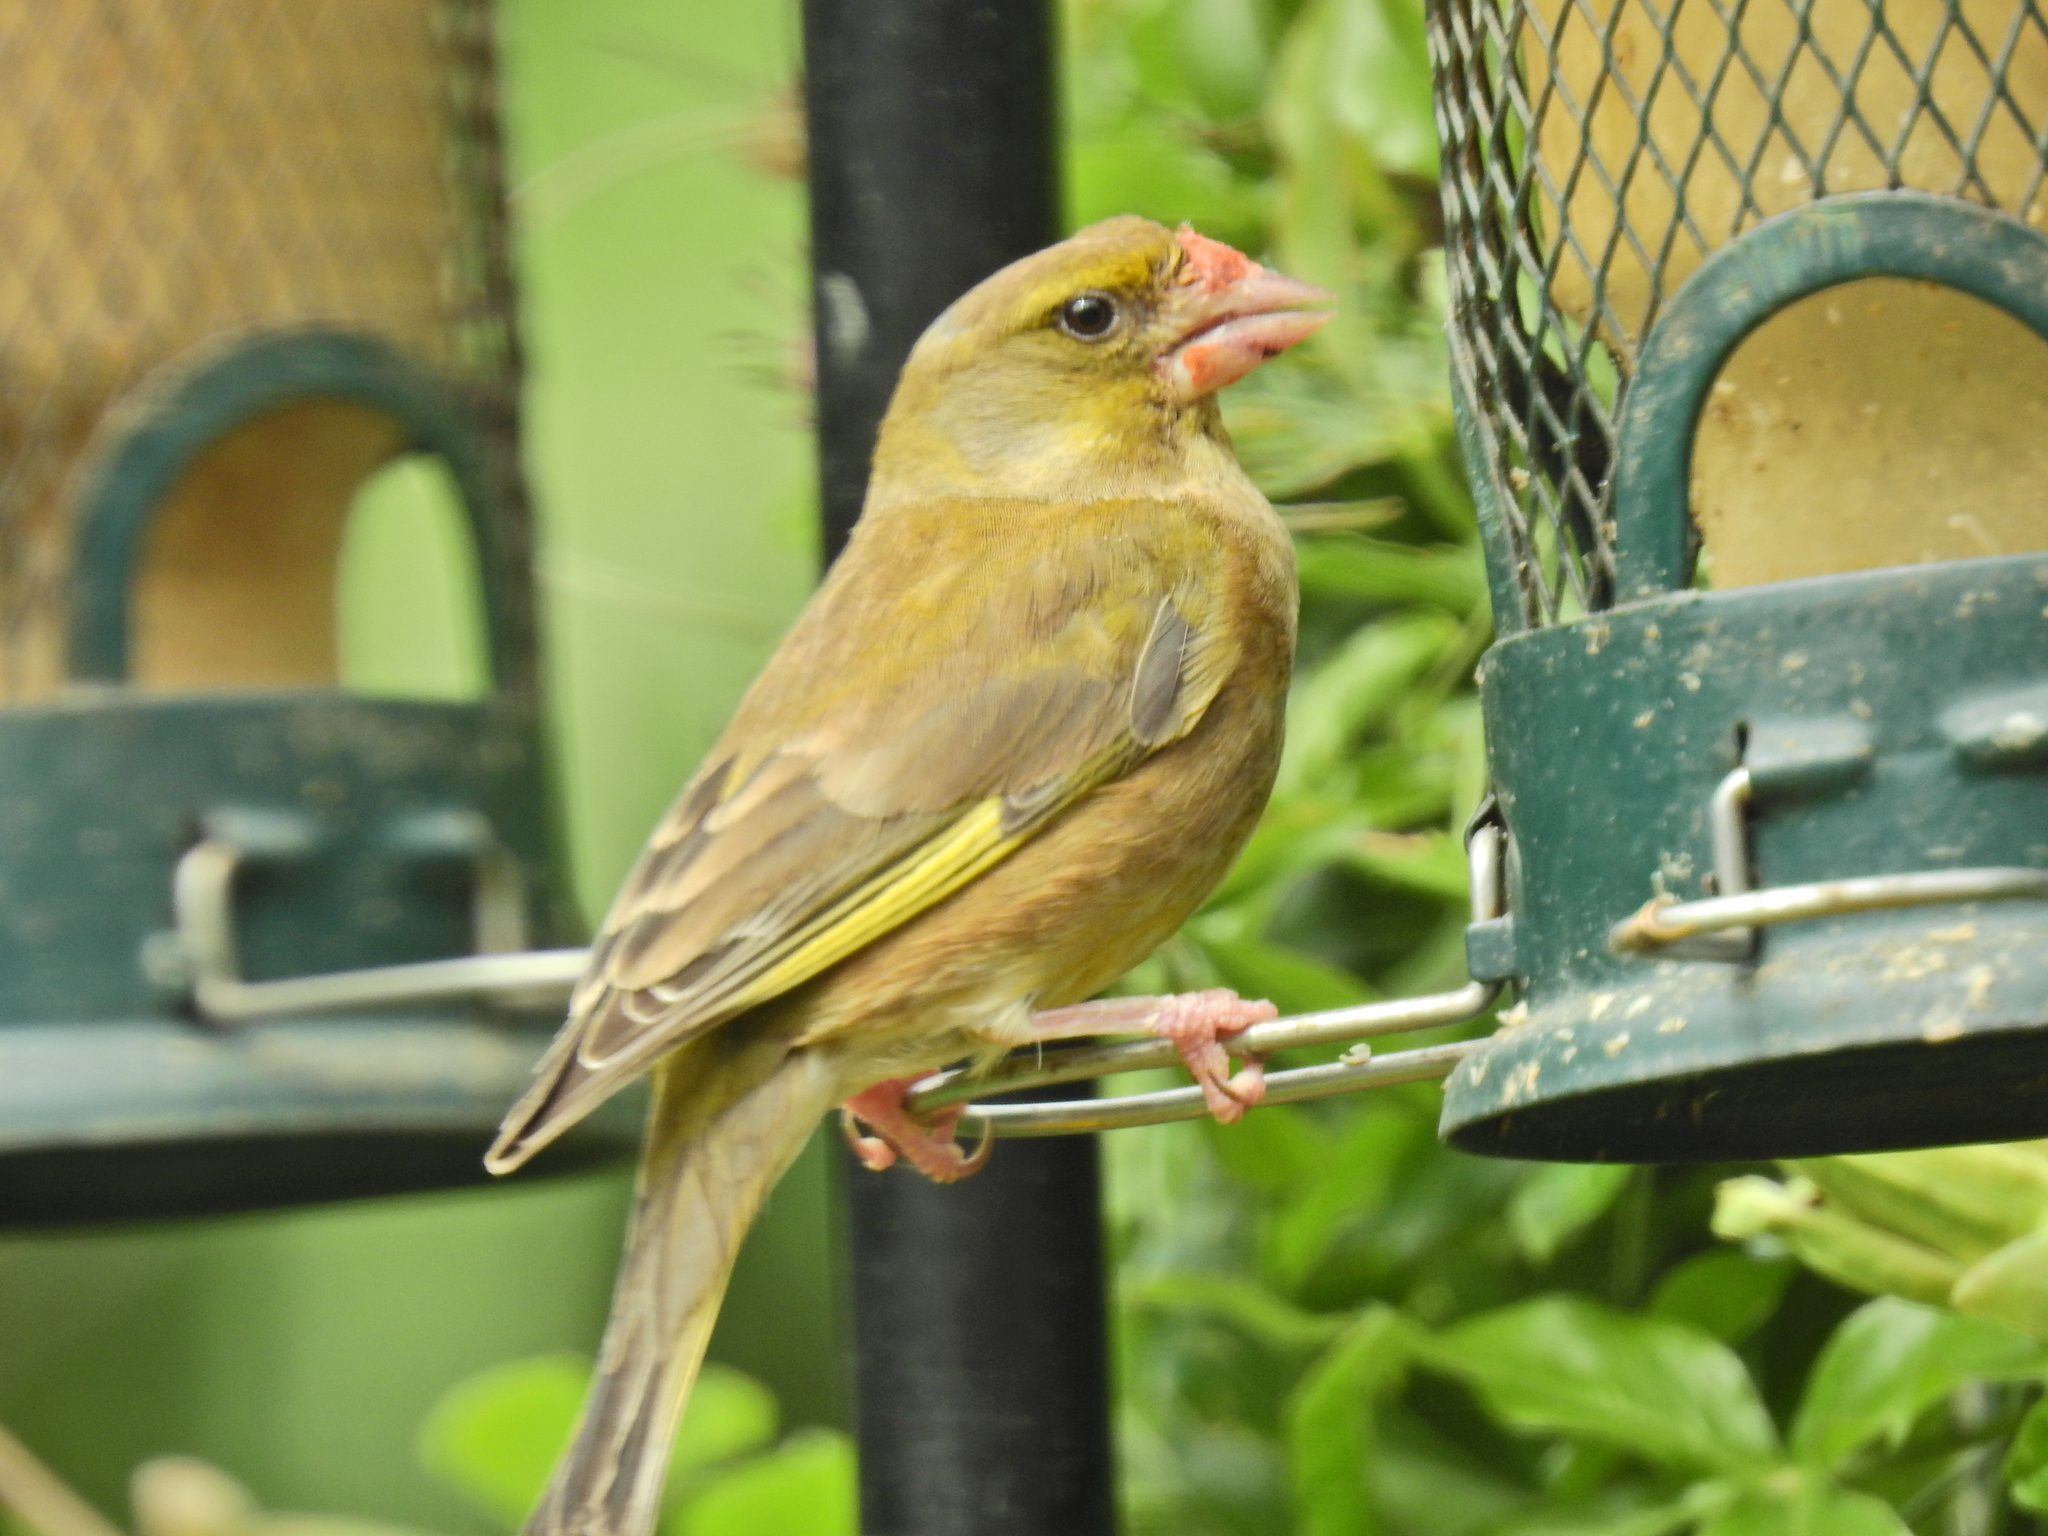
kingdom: Plantae
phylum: Tracheophyta
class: Liliopsida
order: Poales
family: Poaceae
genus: Chloris
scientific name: Chloris chloris
